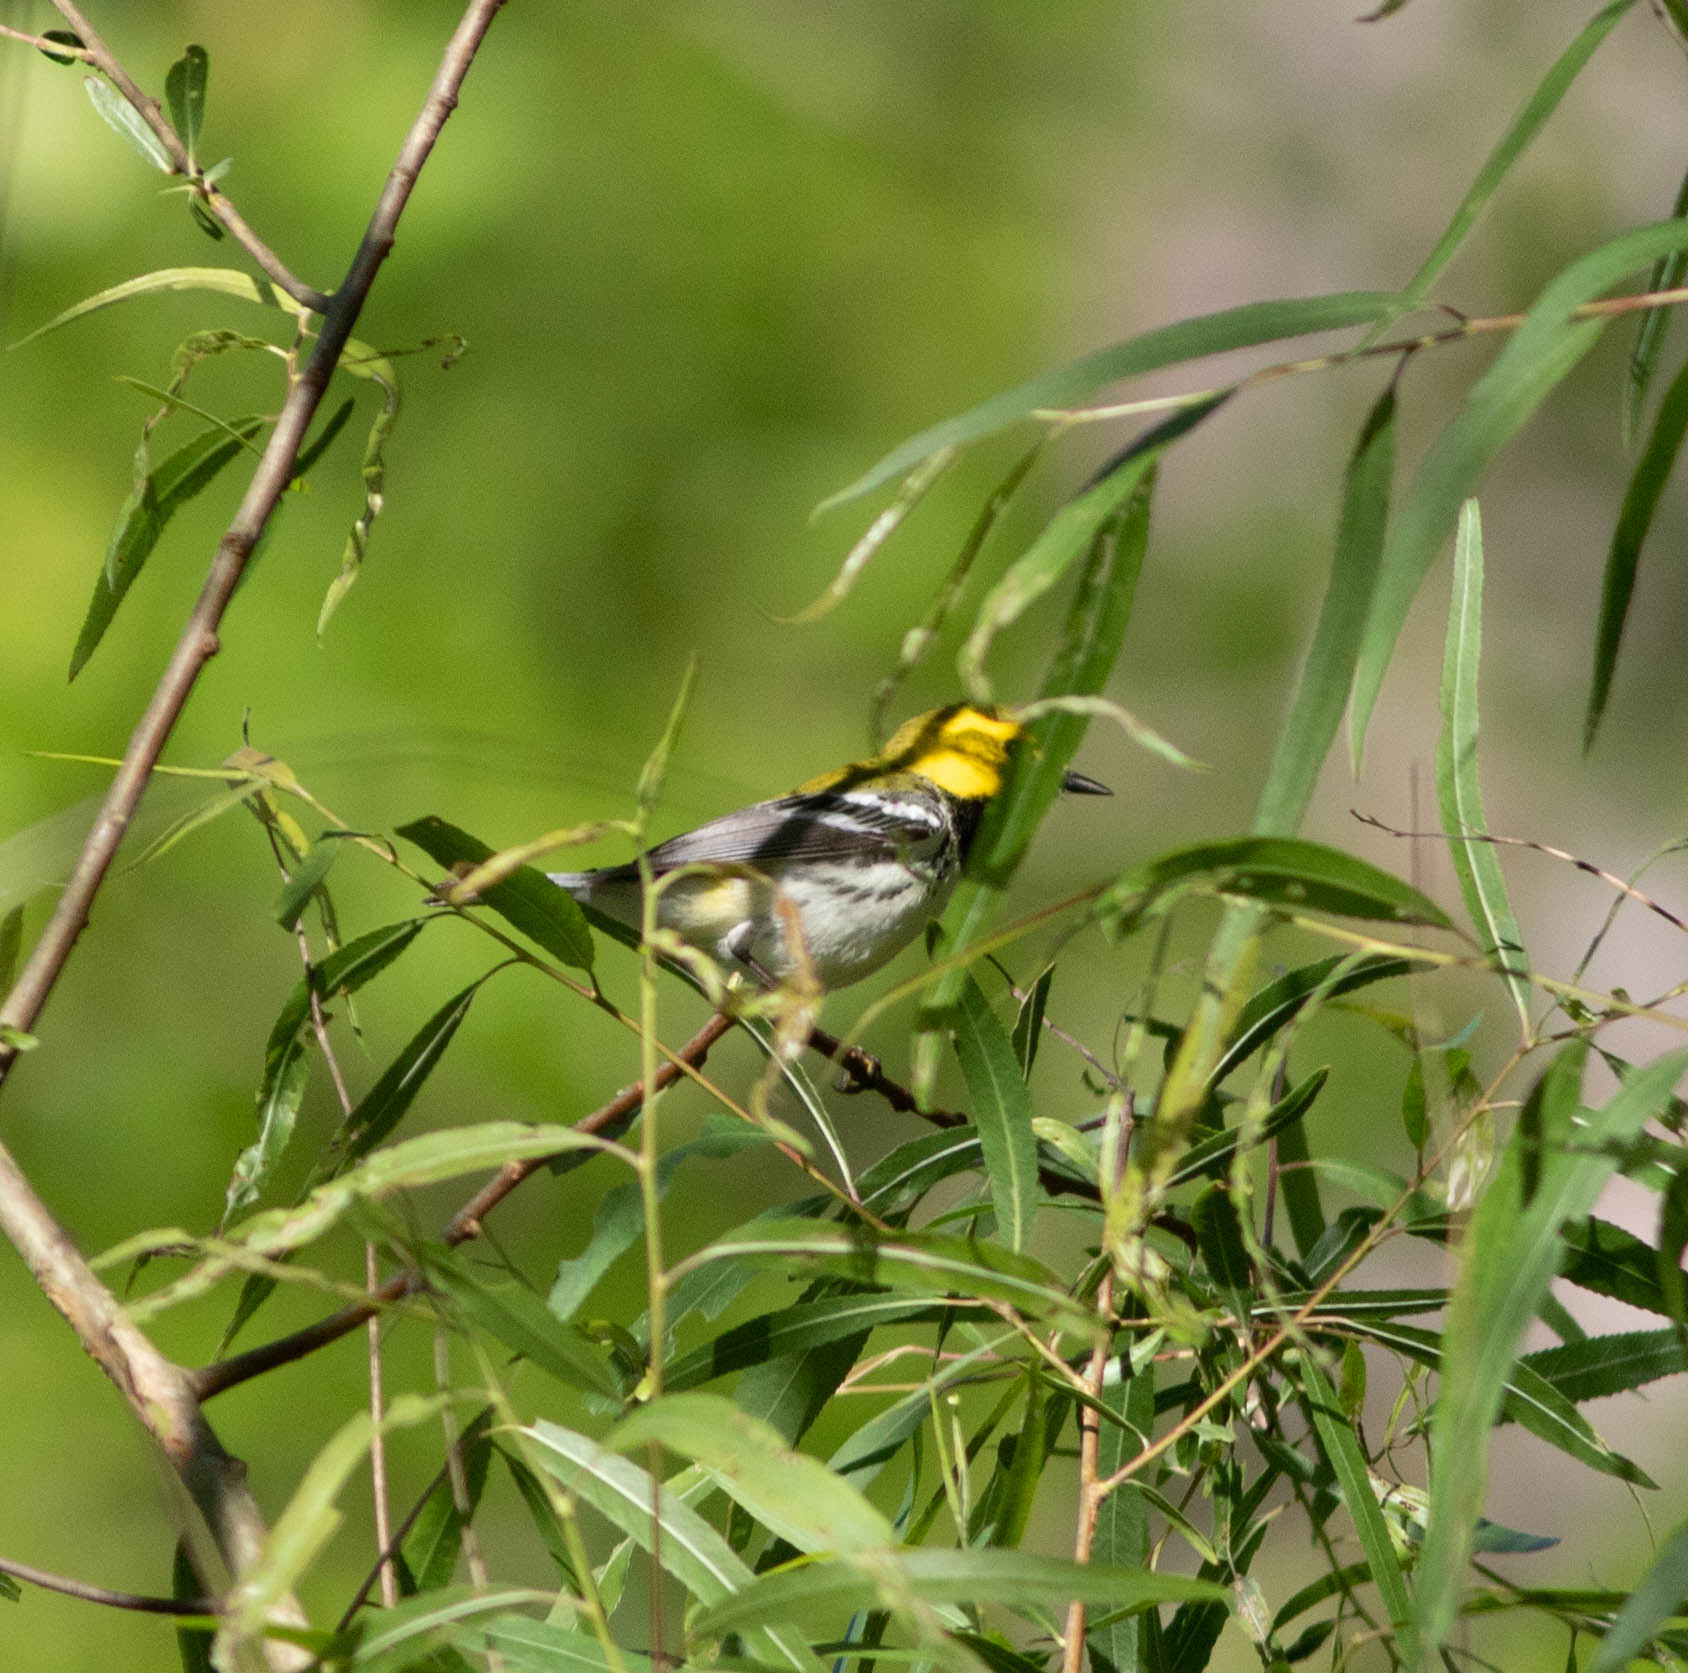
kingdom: Animalia
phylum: Chordata
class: Aves
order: Passeriformes
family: Parulidae
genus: Setophaga
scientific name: Setophaga virens
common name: Black-throated green warbler
